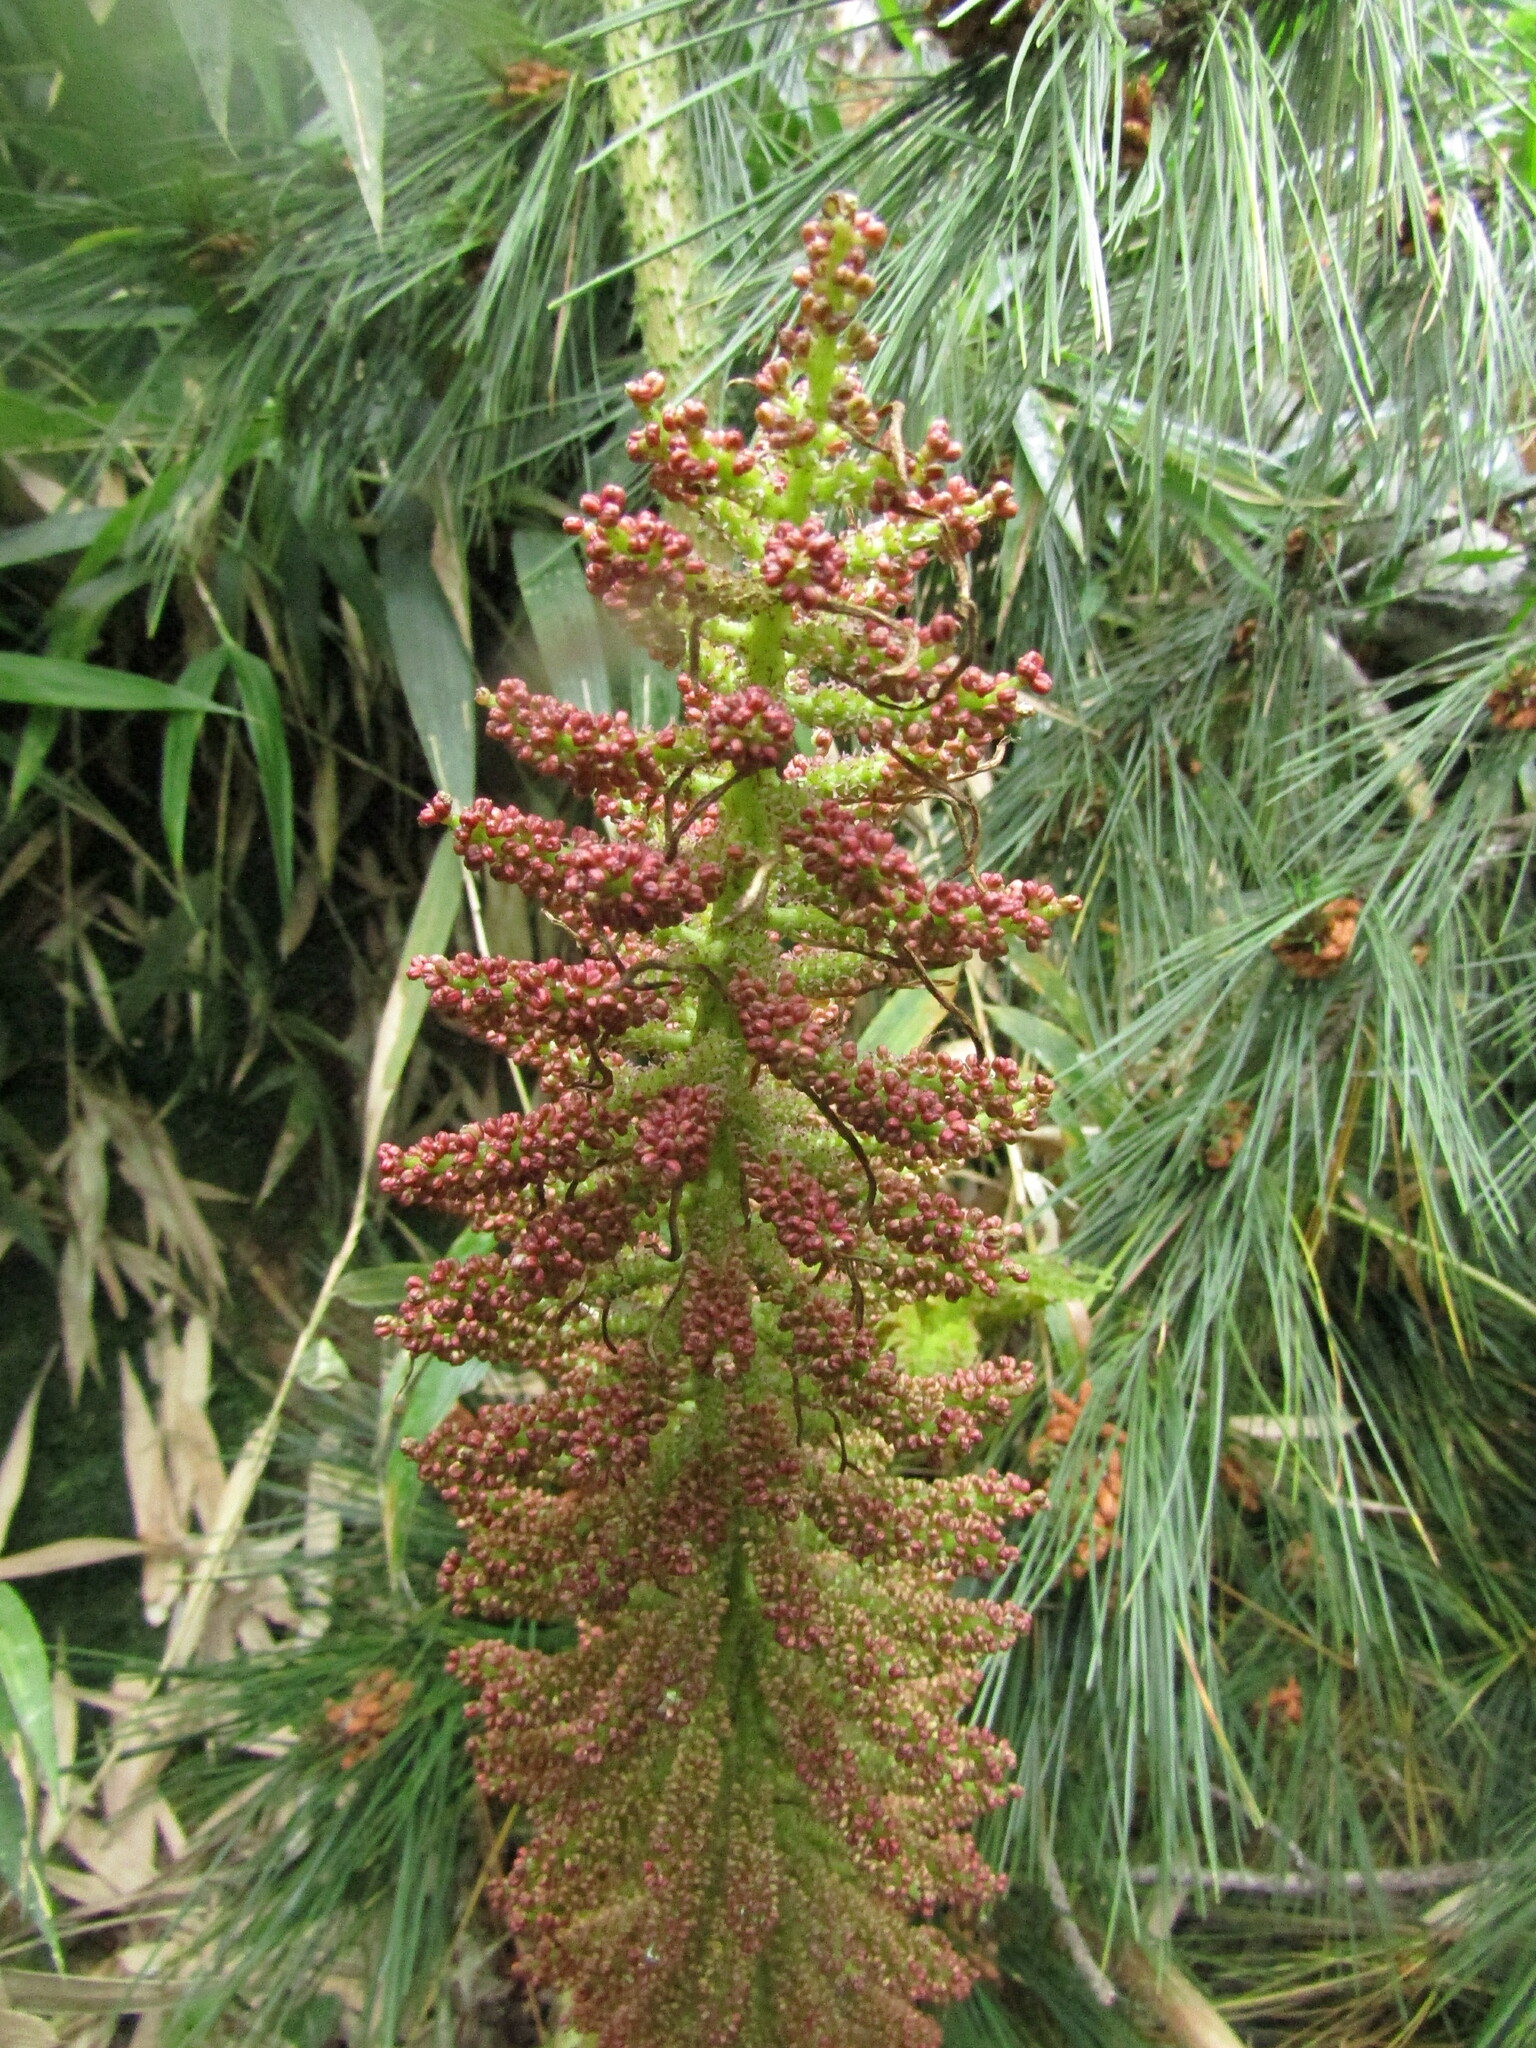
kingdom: Plantae
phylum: Tracheophyta
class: Magnoliopsida
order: Gunnerales
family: Gunneraceae
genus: Gunnera
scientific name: Gunnera tinctoria
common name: Giant-rhubarb
